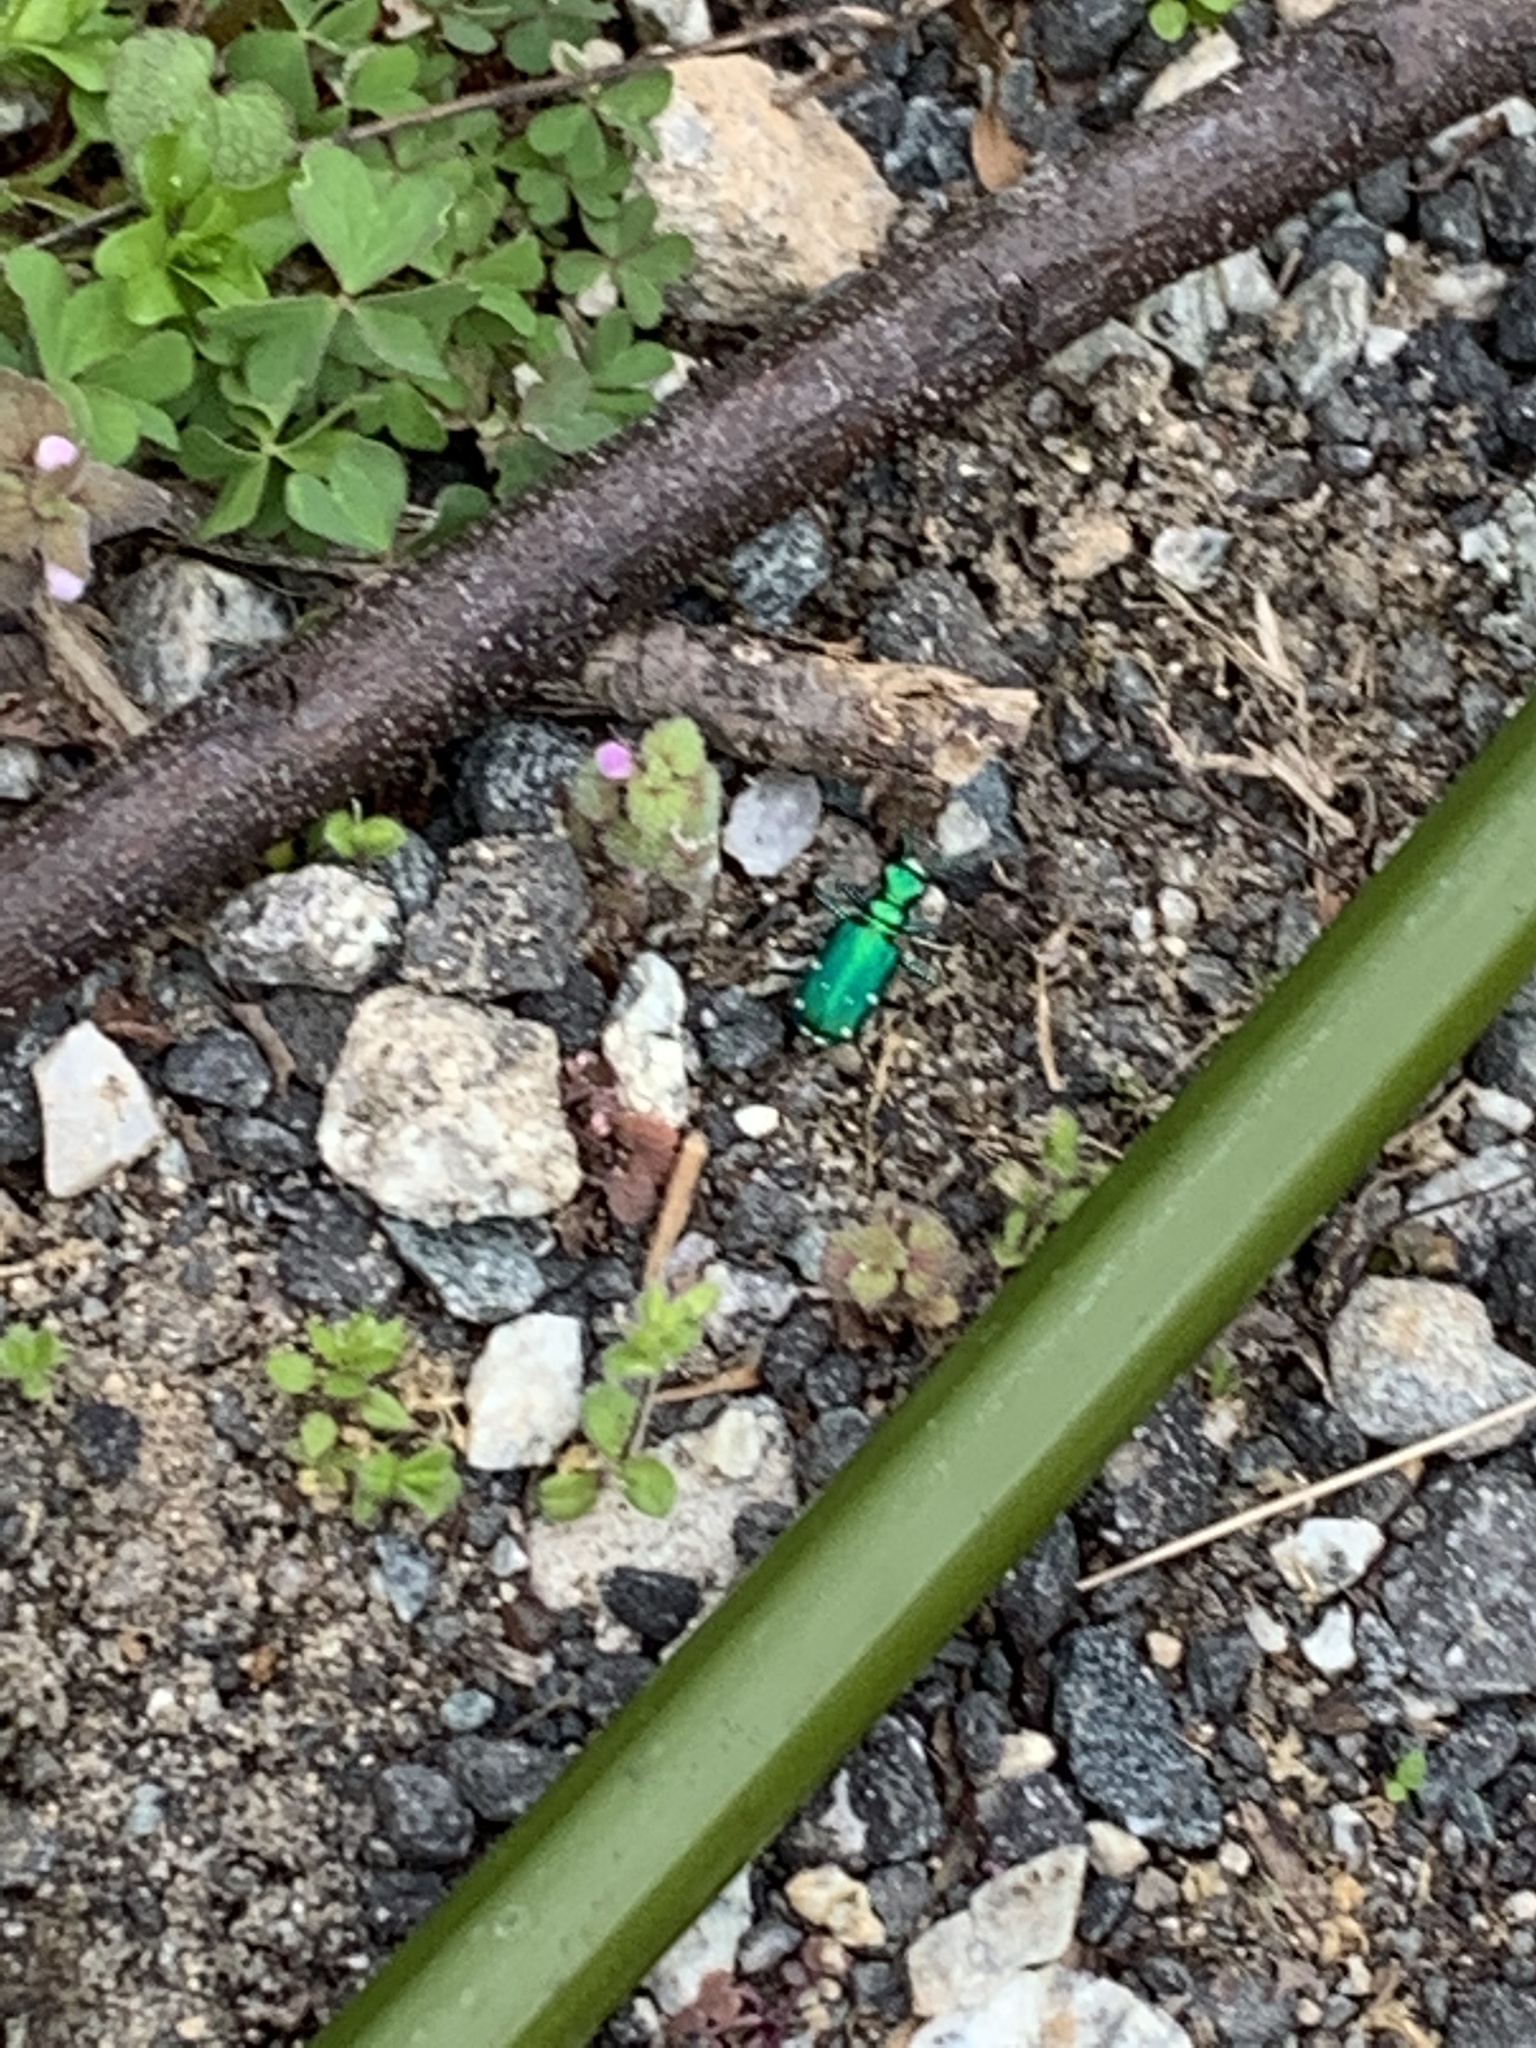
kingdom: Animalia
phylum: Arthropoda
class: Insecta
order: Coleoptera
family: Carabidae
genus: Cicindela
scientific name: Cicindela sexguttata
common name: Six-spotted tiger beetle
